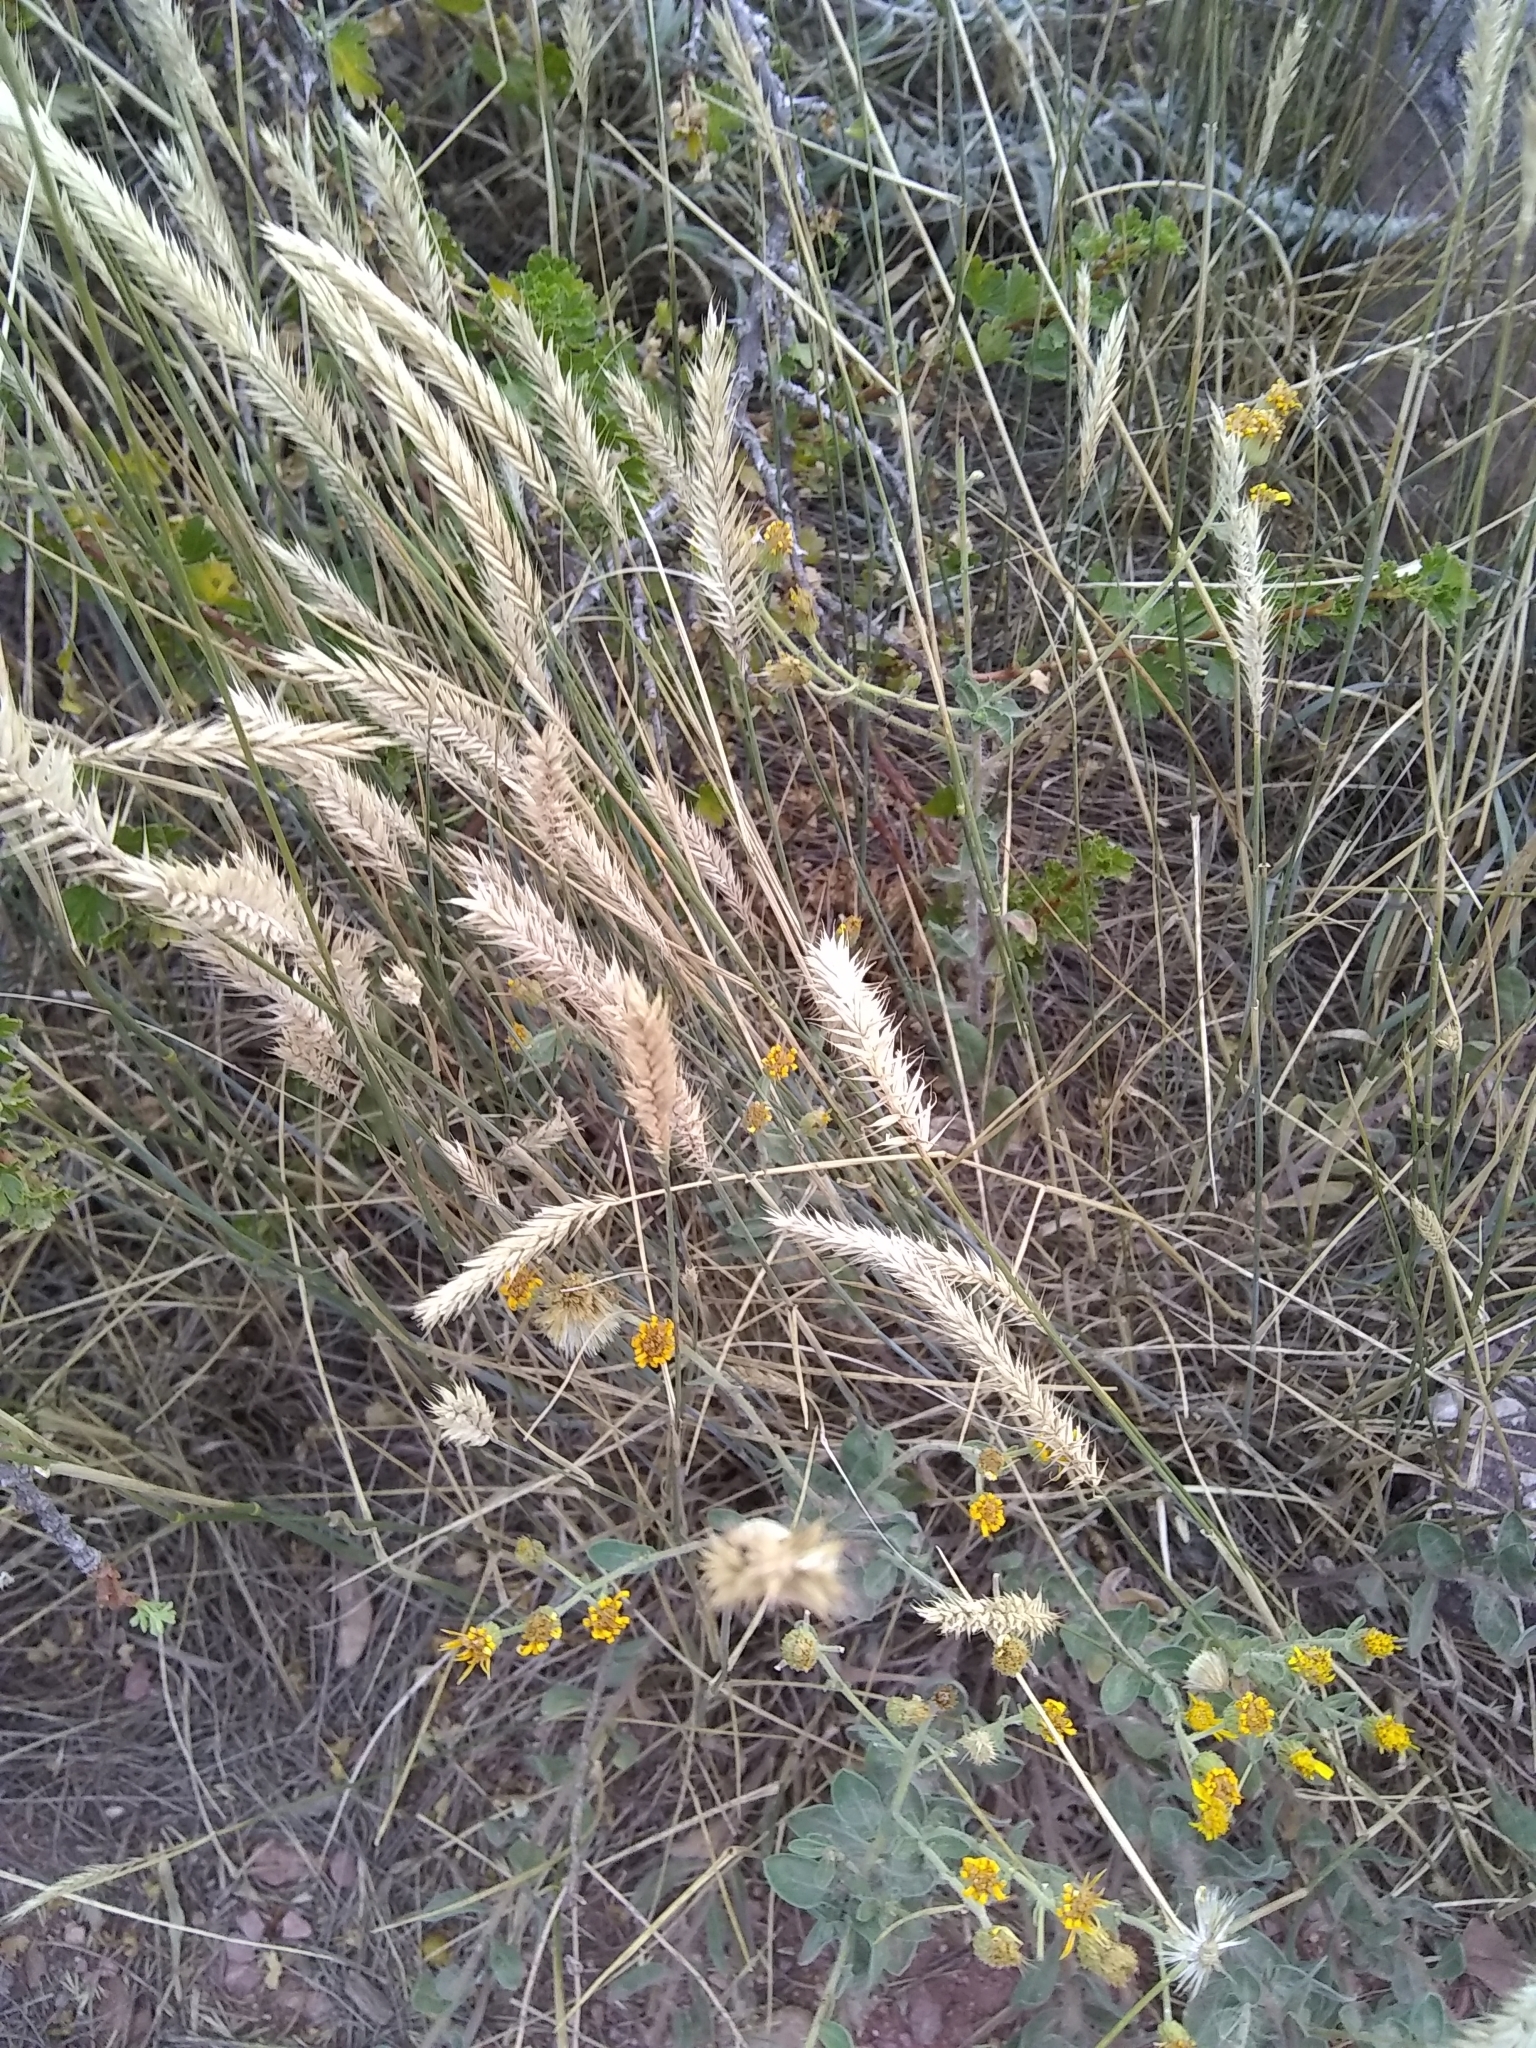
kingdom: Plantae
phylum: Tracheophyta
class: Liliopsida
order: Poales
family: Poaceae
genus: Agropyron
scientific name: Agropyron cristatum
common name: Crested wheatgrass
